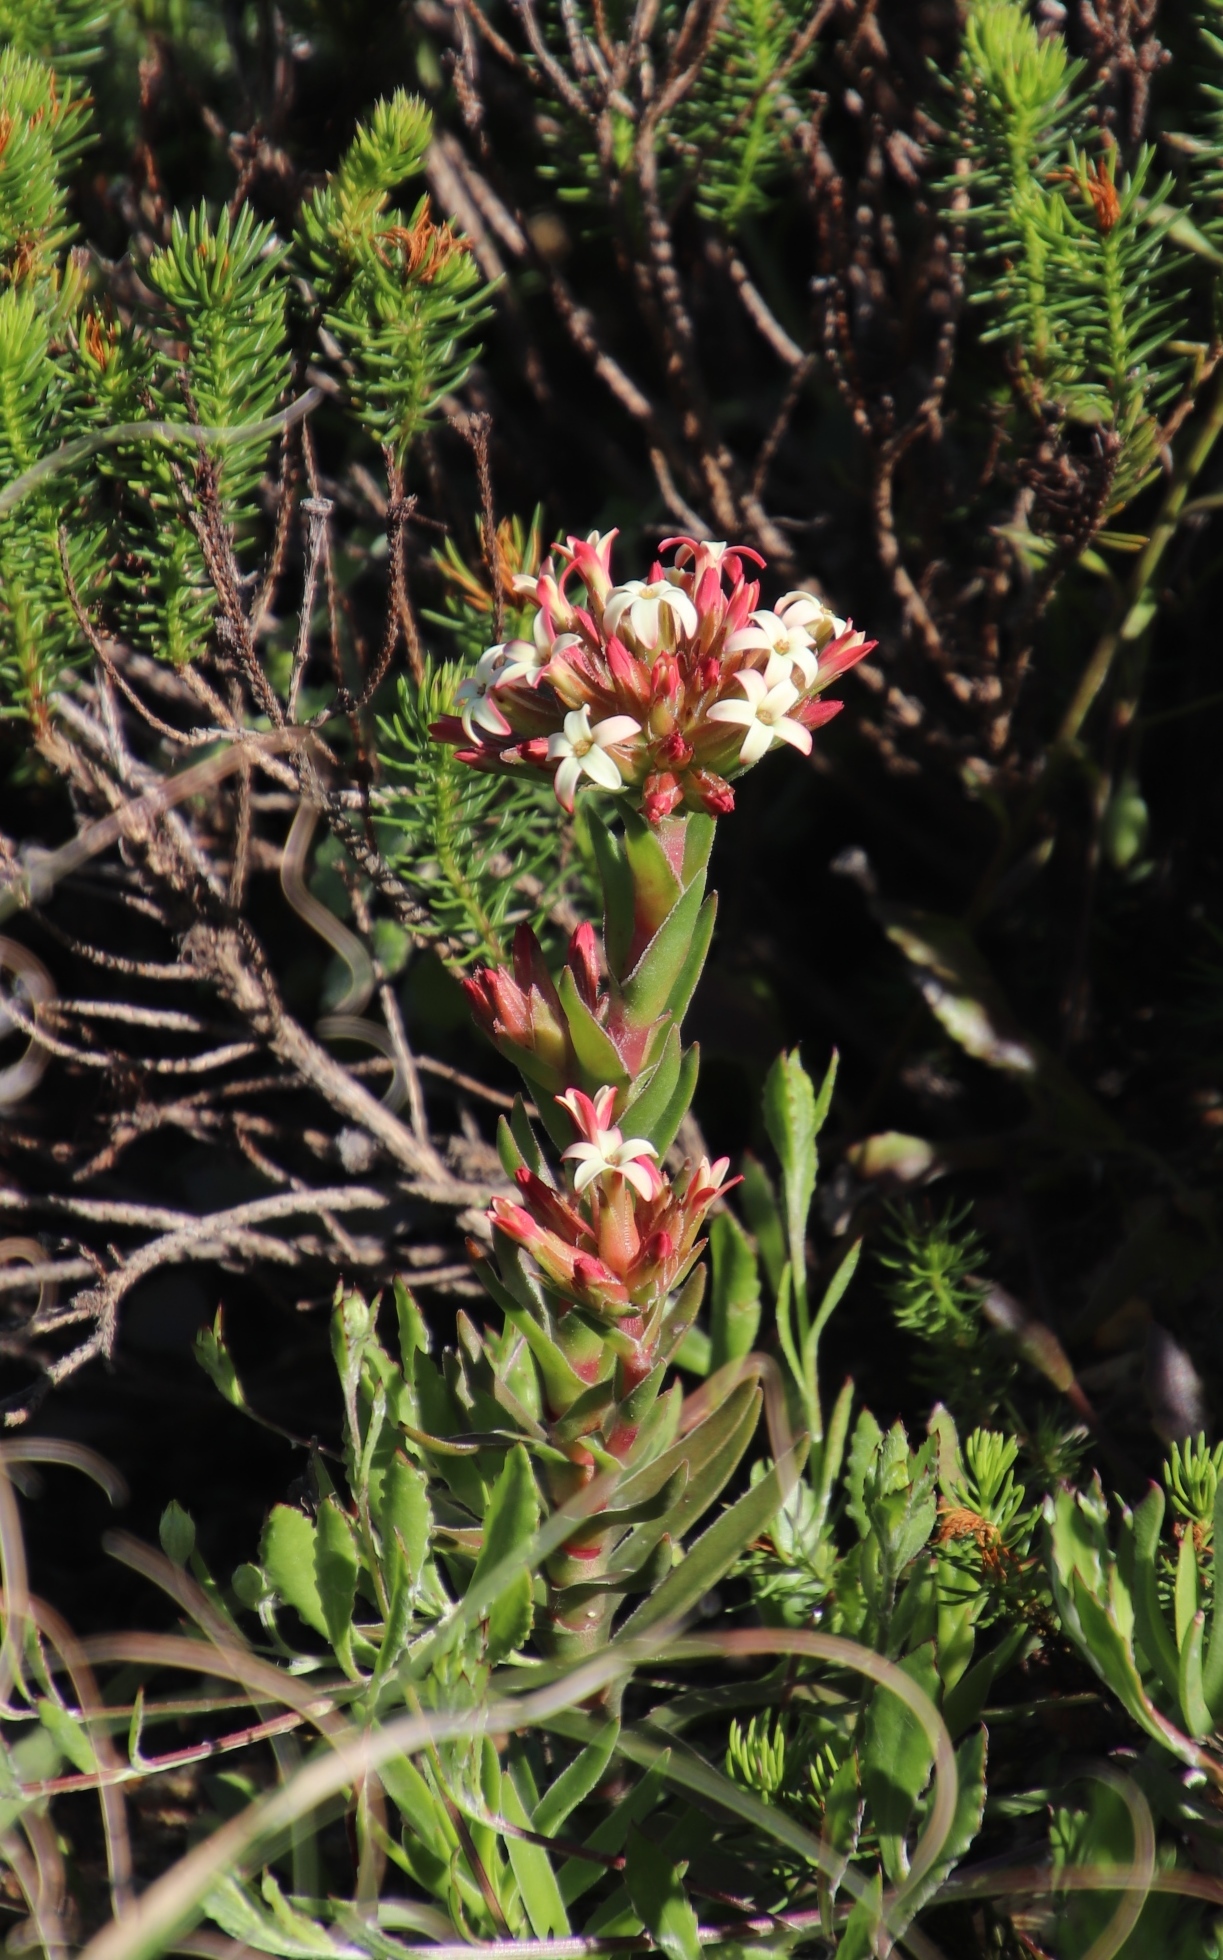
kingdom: Plantae
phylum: Tracheophyta
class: Magnoliopsida
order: Saxifragales
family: Crassulaceae
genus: Crassula
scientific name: Crassula fascicularis
